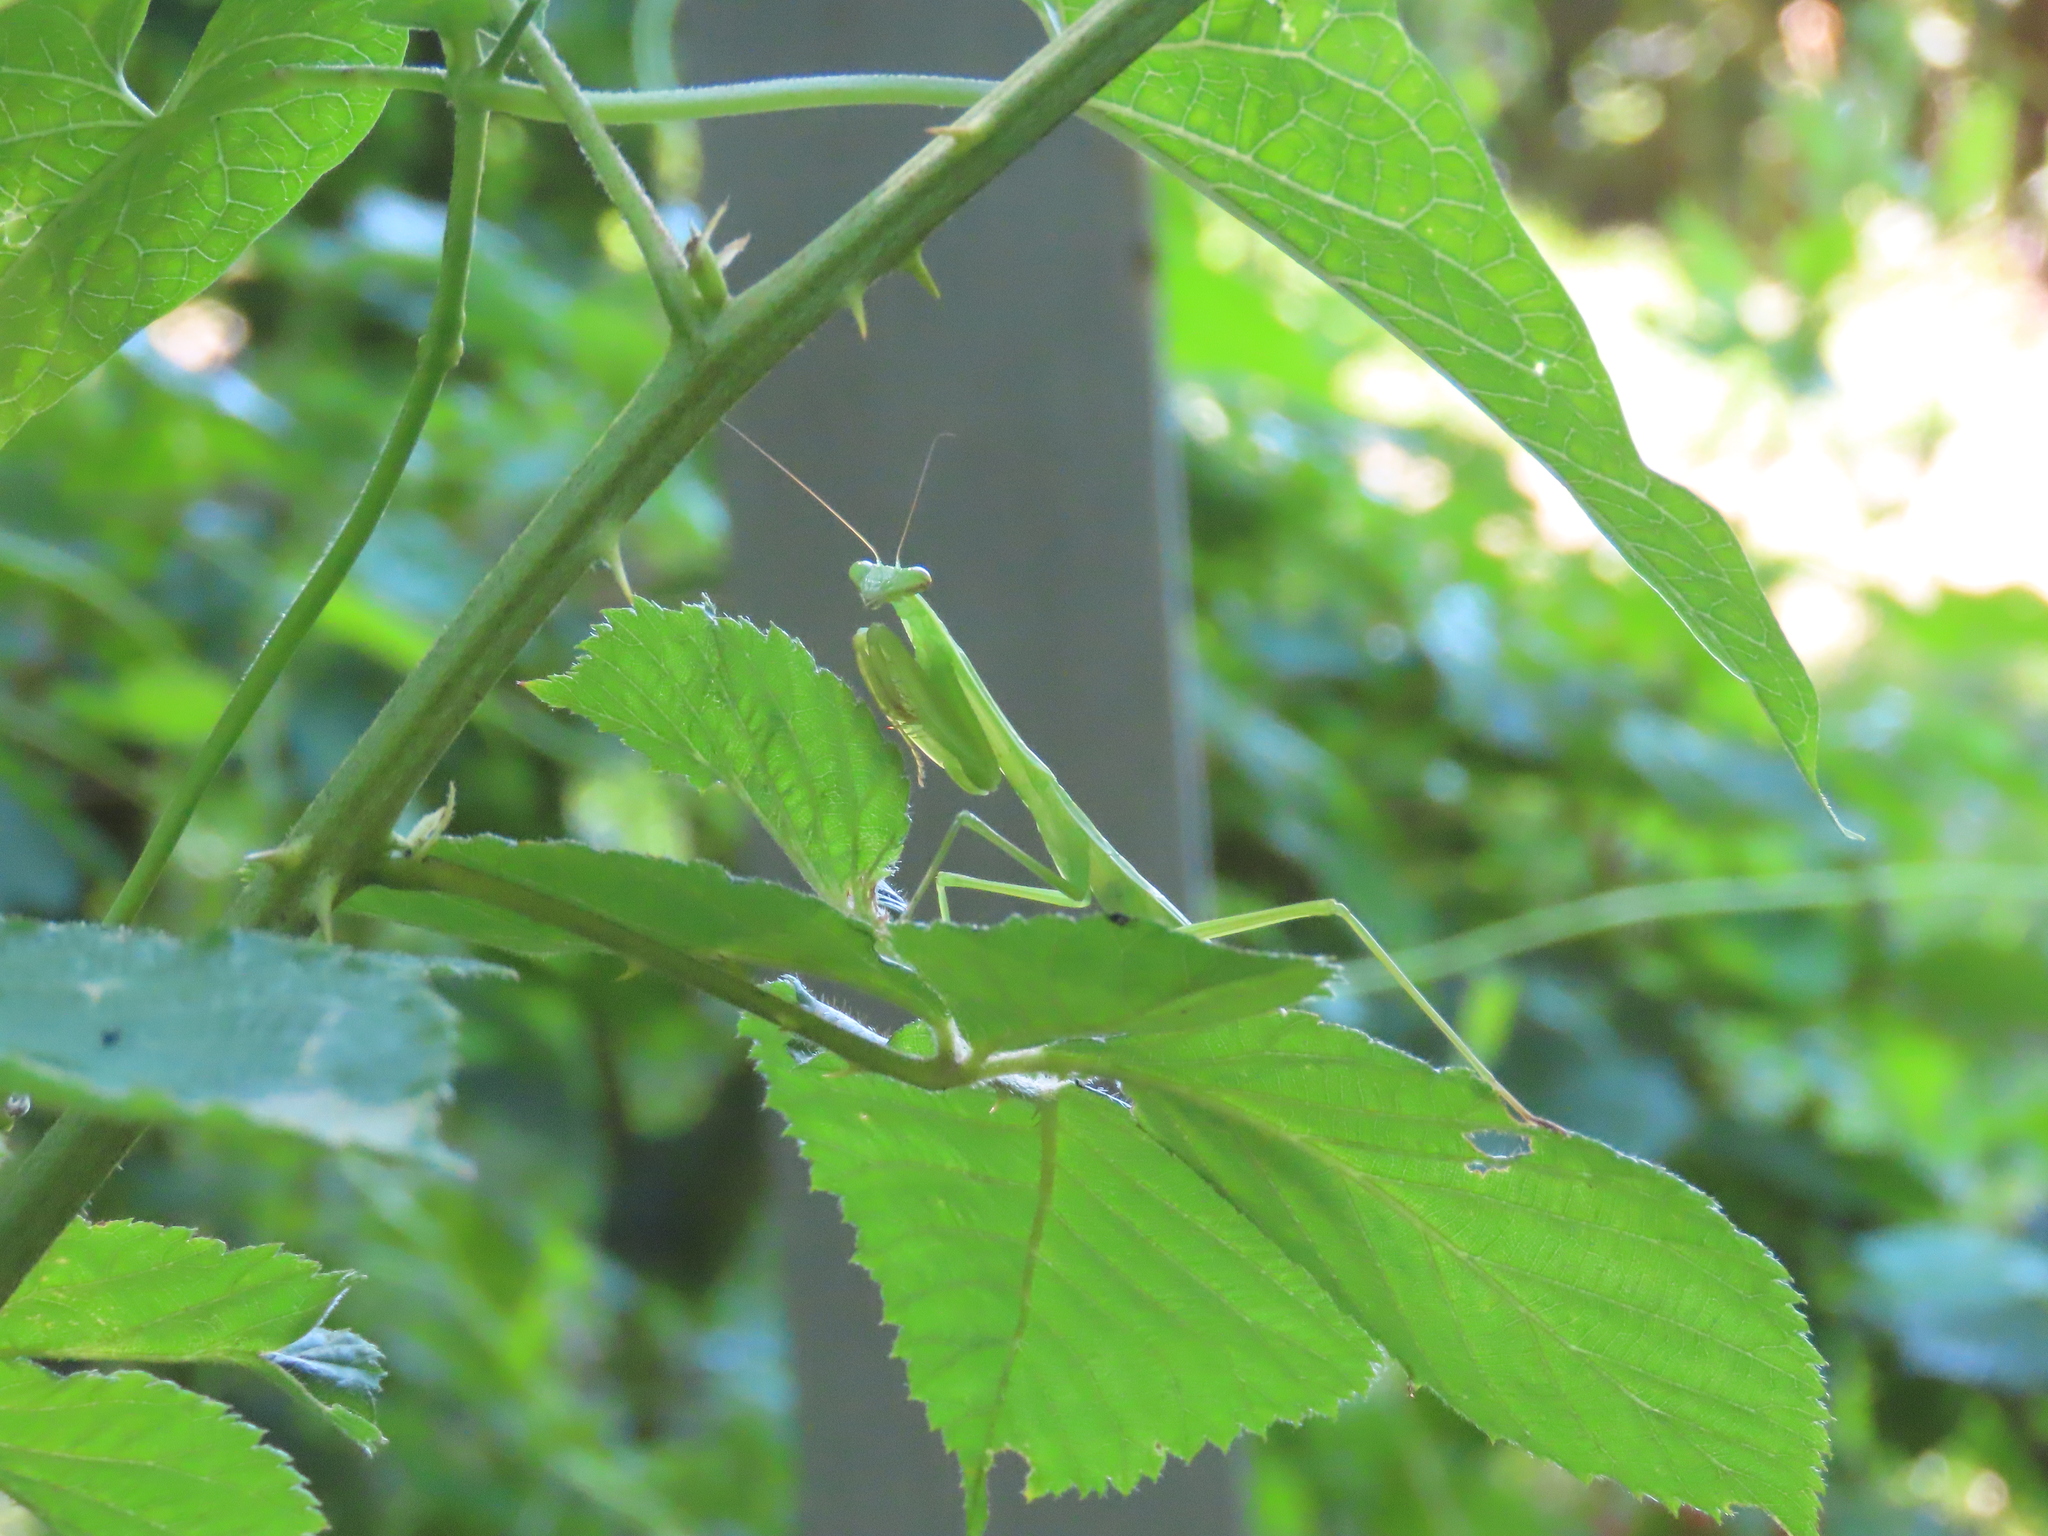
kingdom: Animalia
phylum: Arthropoda
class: Insecta
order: Mantodea
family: Mantidae
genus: Tenodera
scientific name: Tenodera sinensis
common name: Chinese mantis
